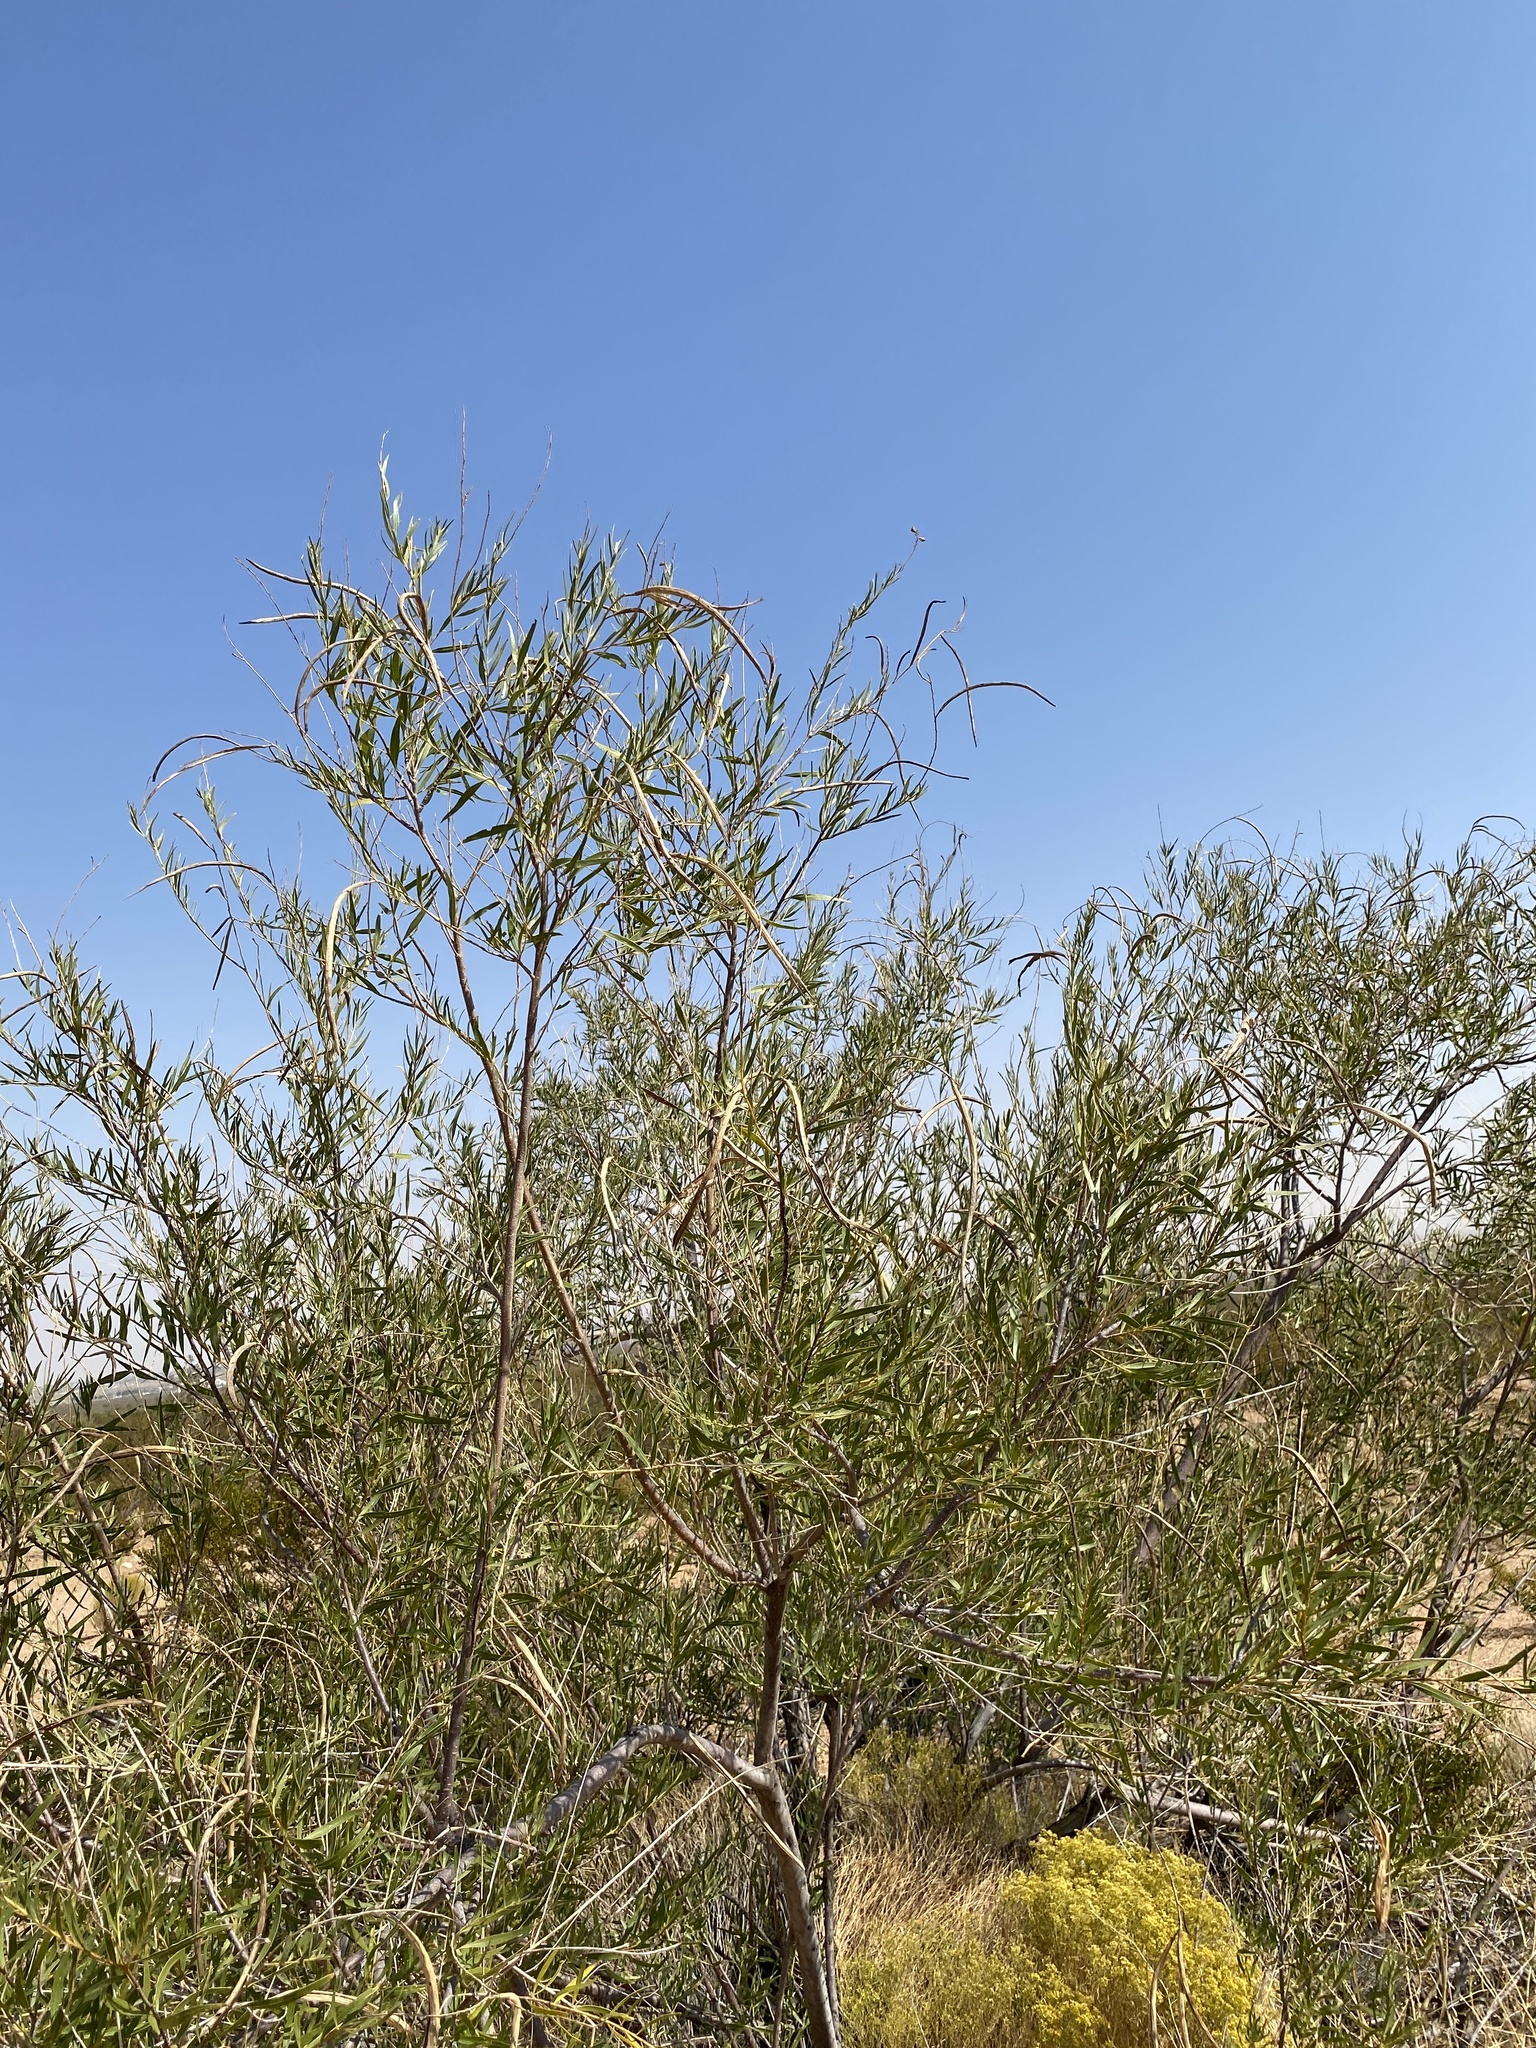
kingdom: Plantae
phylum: Tracheophyta
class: Magnoliopsida
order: Lamiales
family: Bignoniaceae
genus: Chilopsis
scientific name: Chilopsis linearis
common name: Desert-willow
